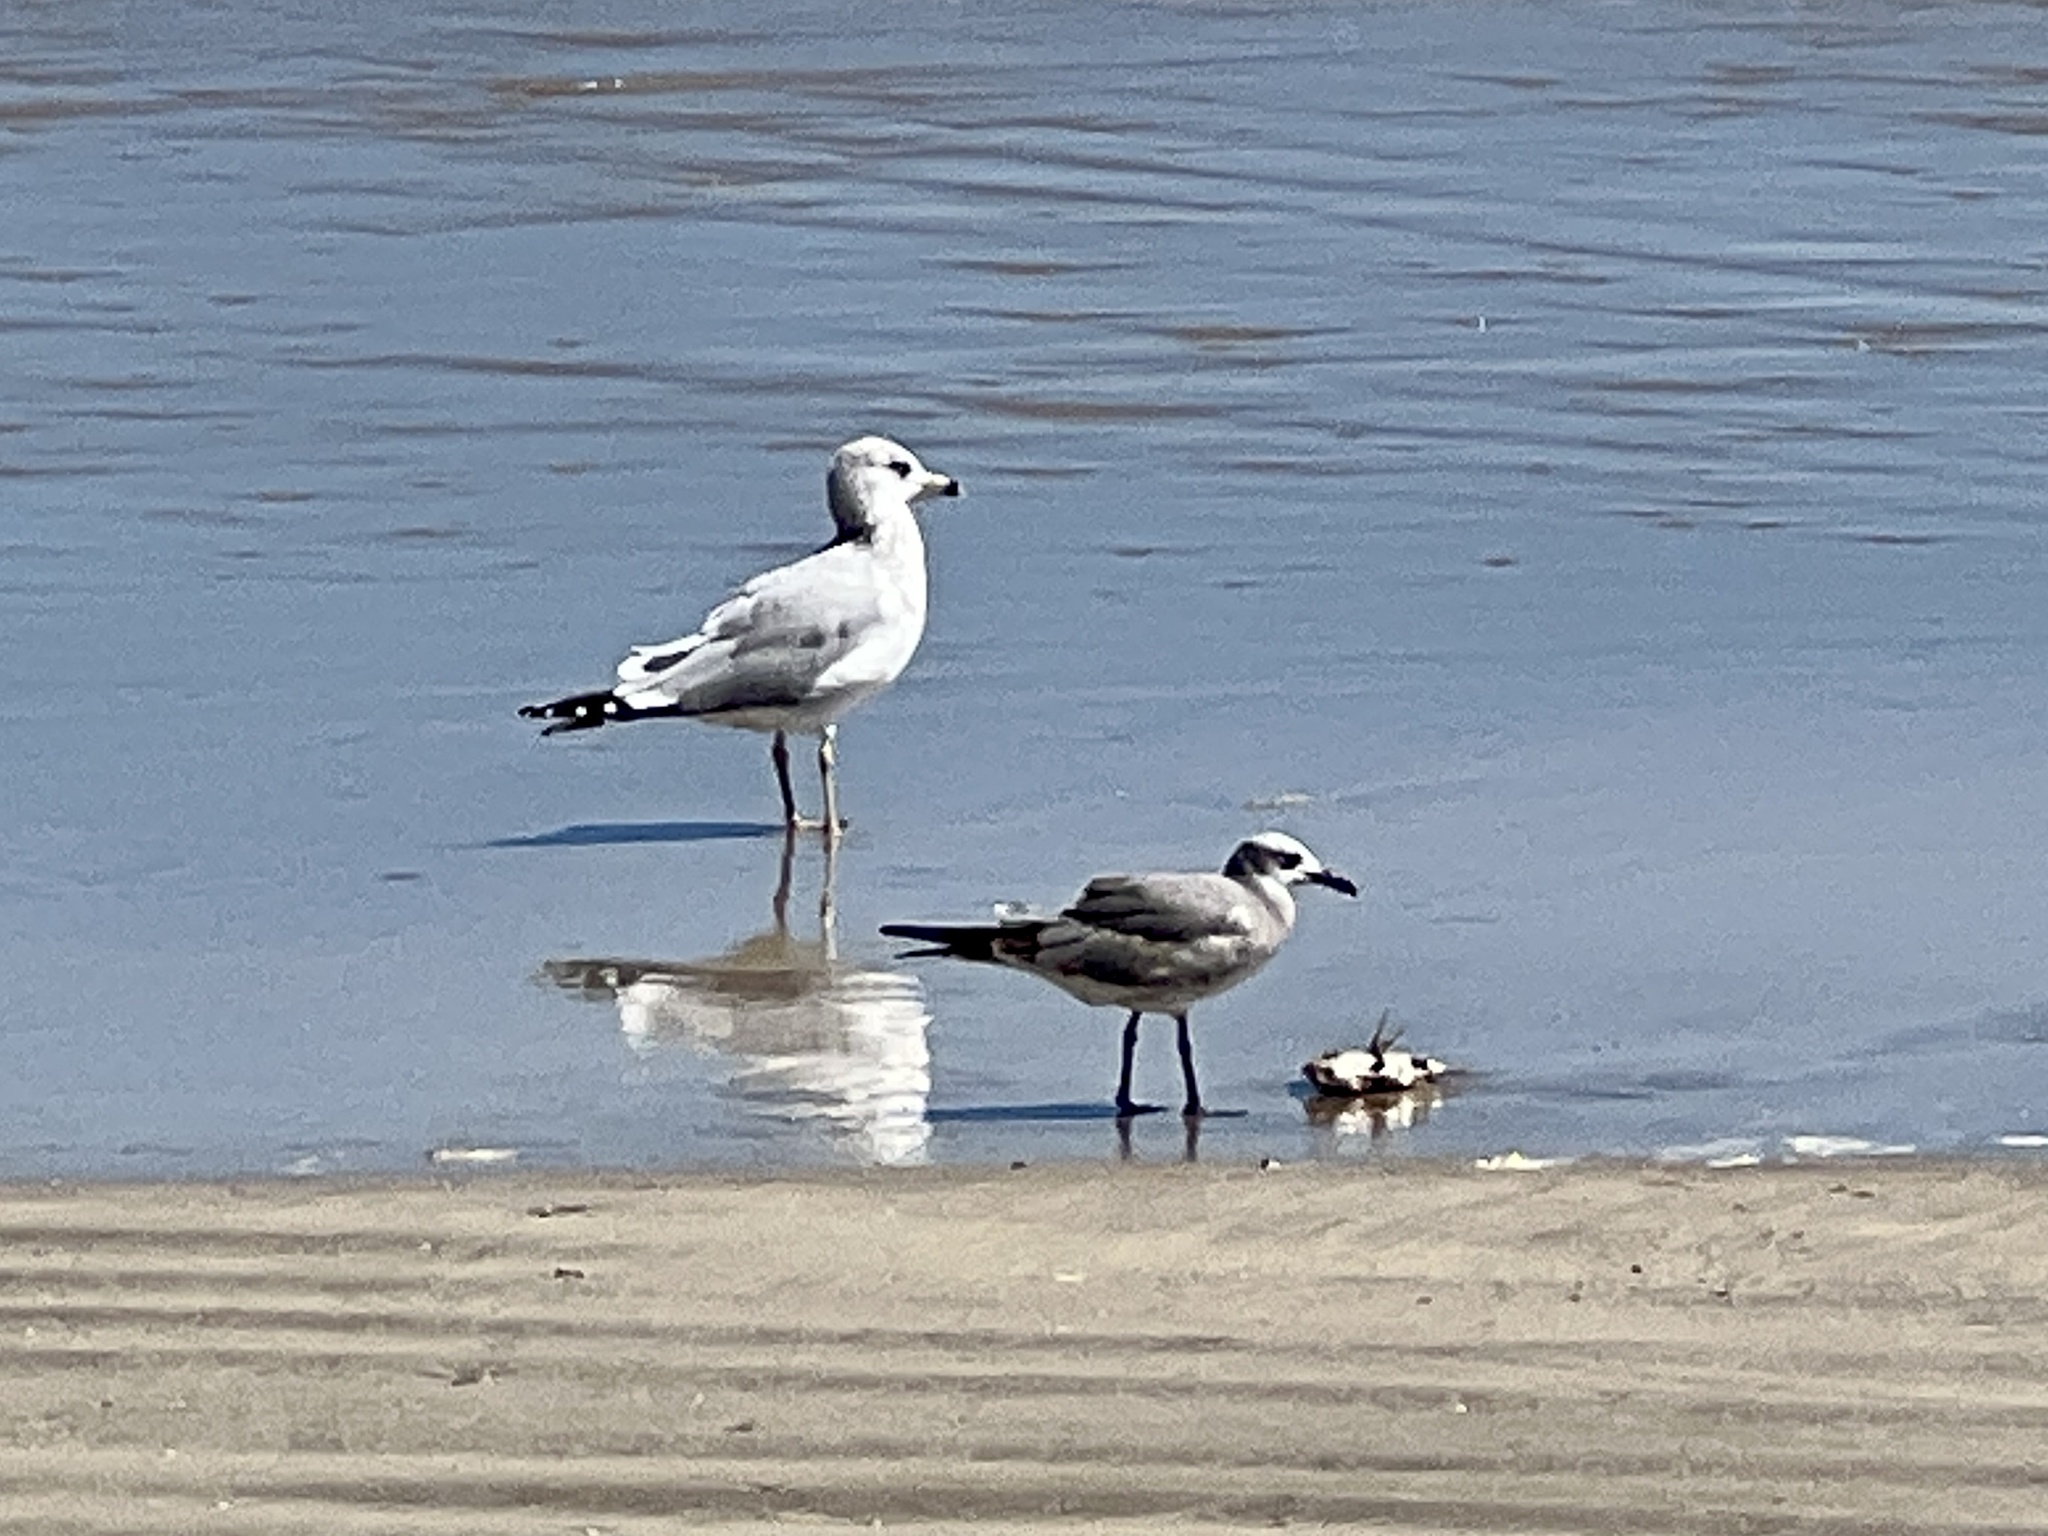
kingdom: Animalia
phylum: Chordata
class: Aves
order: Charadriiformes
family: Laridae
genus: Leucophaeus
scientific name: Leucophaeus atricilla
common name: Laughing gull
